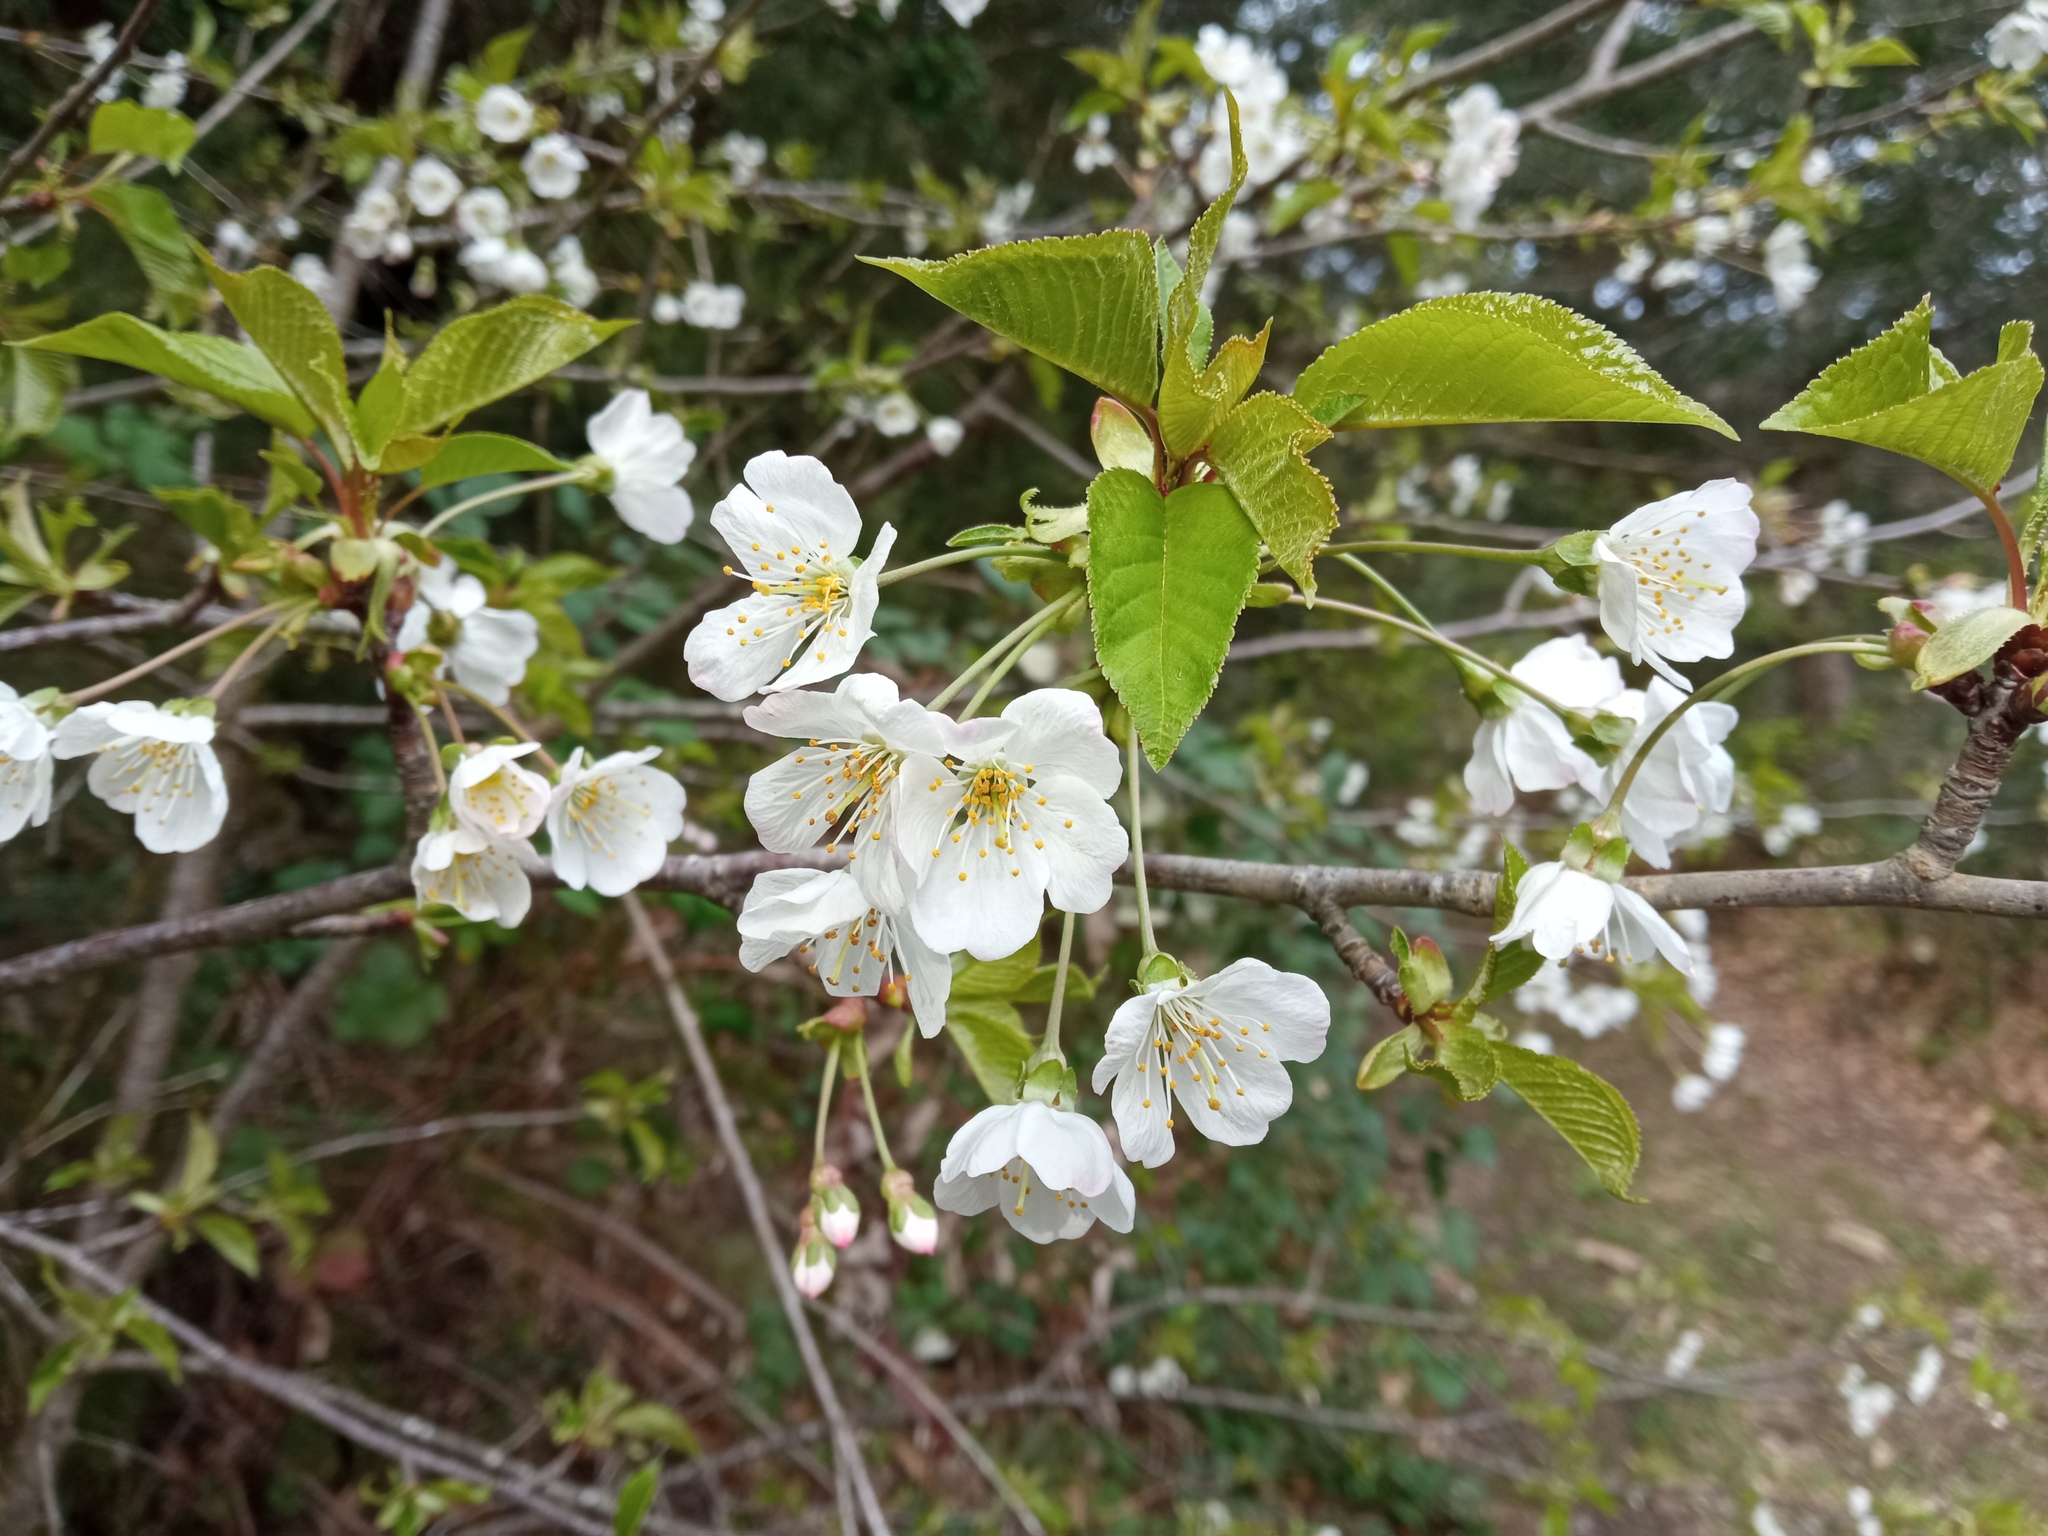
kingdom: Plantae
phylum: Tracheophyta
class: Magnoliopsida
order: Rosales
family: Rosaceae
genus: Prunus
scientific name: Prunus avium
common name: Sweet cherry
